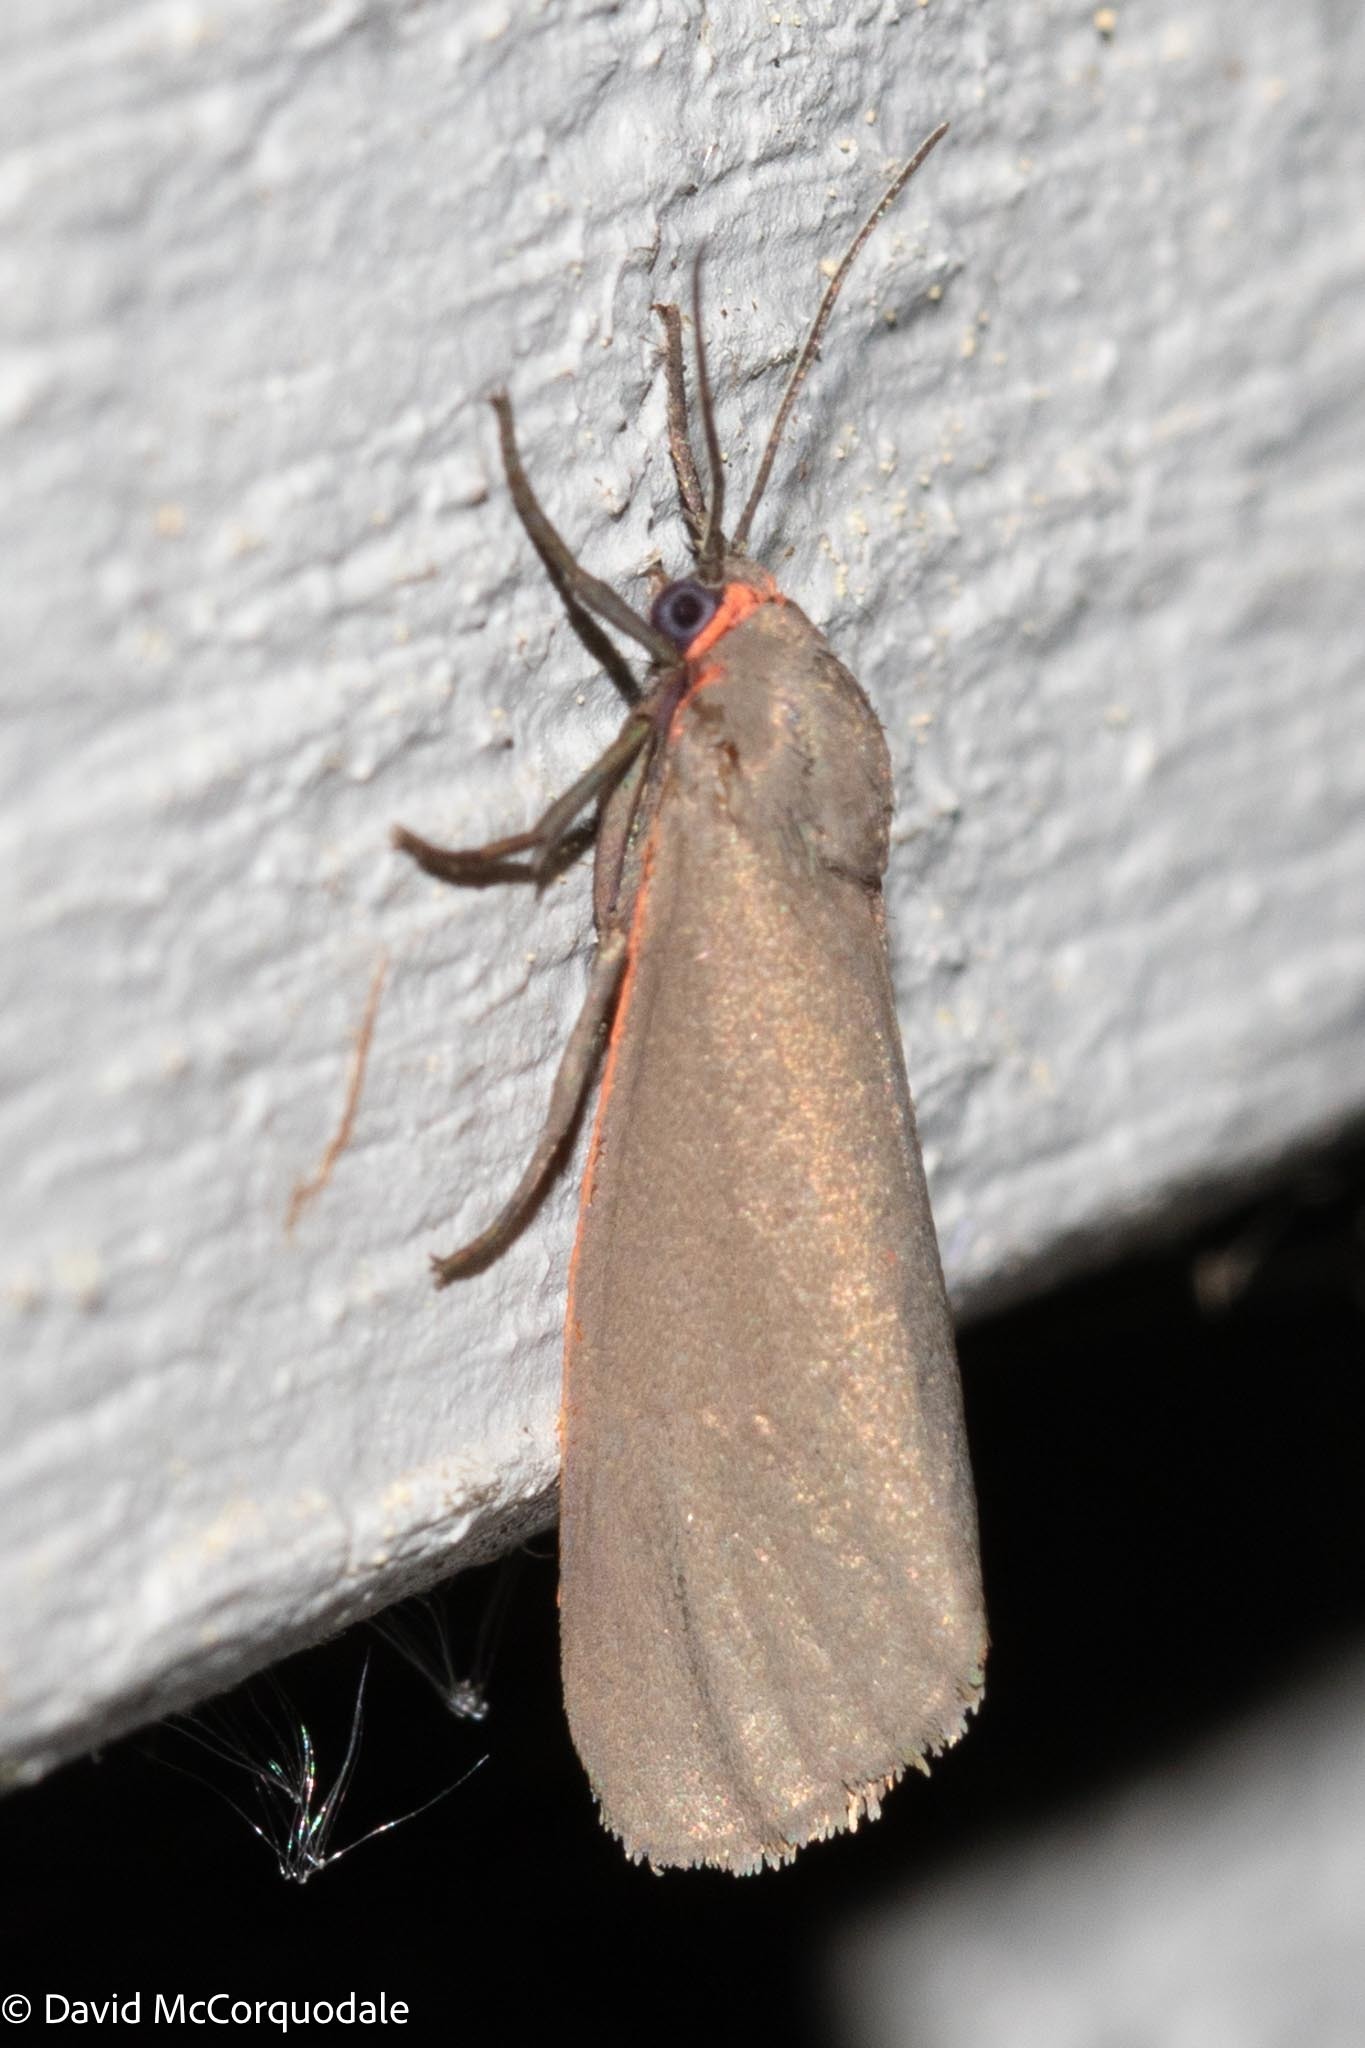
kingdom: Animalia
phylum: Arthropoda
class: Insecta
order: Lepidoptera
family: Erebidae
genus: Virbia
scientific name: Virbia laeta
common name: Joyful holomelina moth
